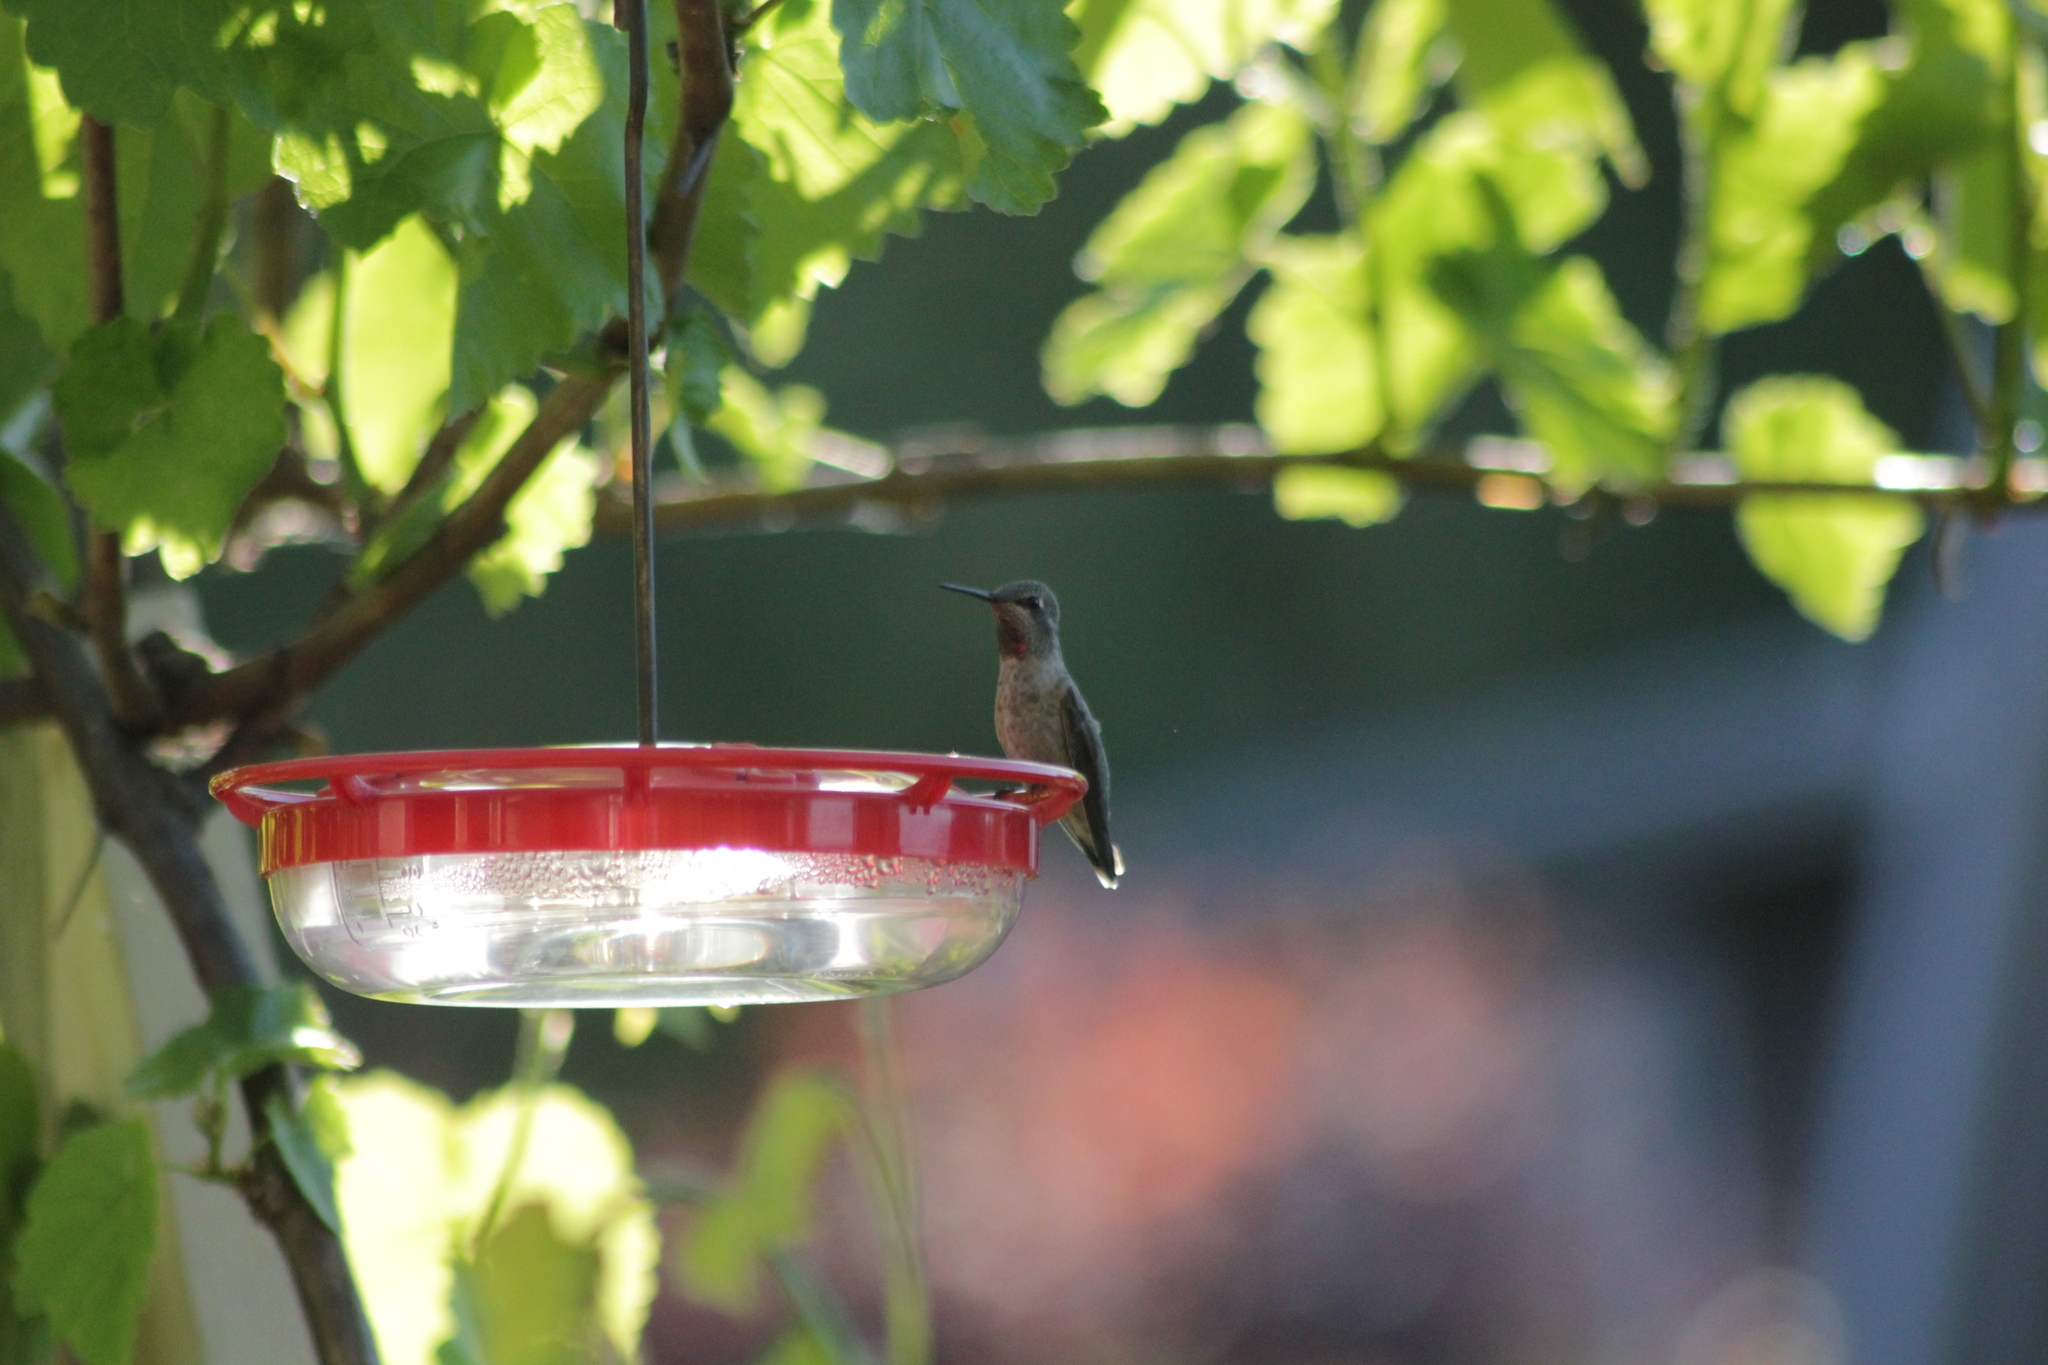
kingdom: Animalia
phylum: Chordata
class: Aves
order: Apodiformes
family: Trochilidae
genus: Calypte
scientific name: Calypte anna
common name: Anna's hummingbird
